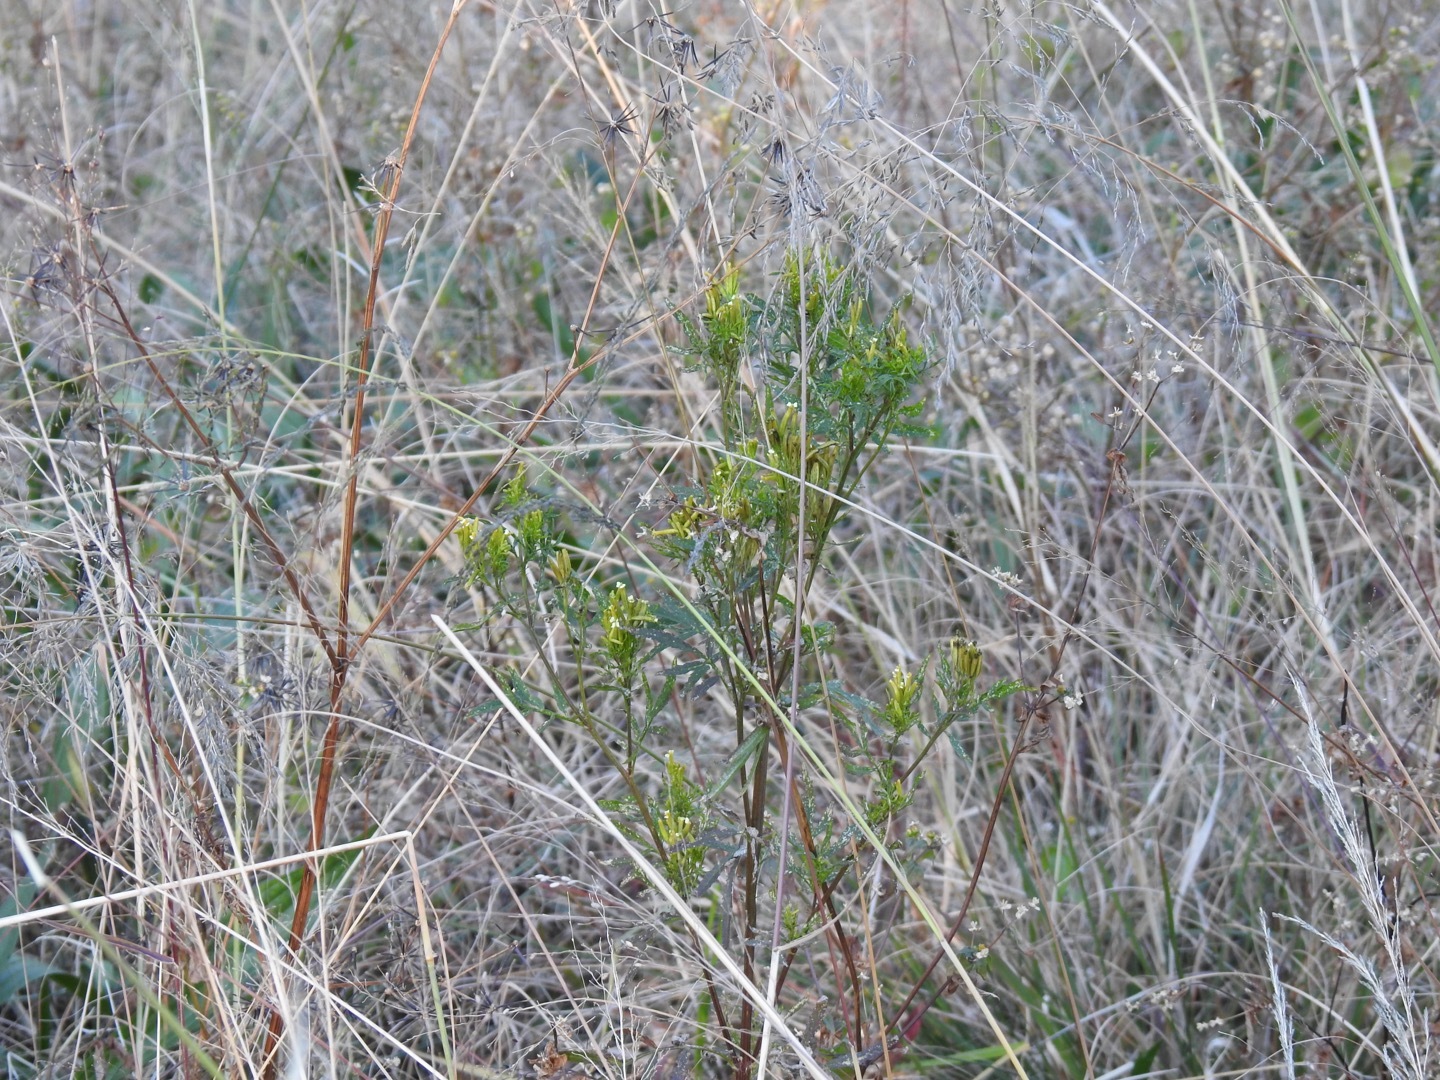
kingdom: Plantae
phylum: Tracheophyta
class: Magnoliopsida
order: Asterales
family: Asteraceae
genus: Tagetes
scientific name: Tagetes minuta
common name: Muster john henry
